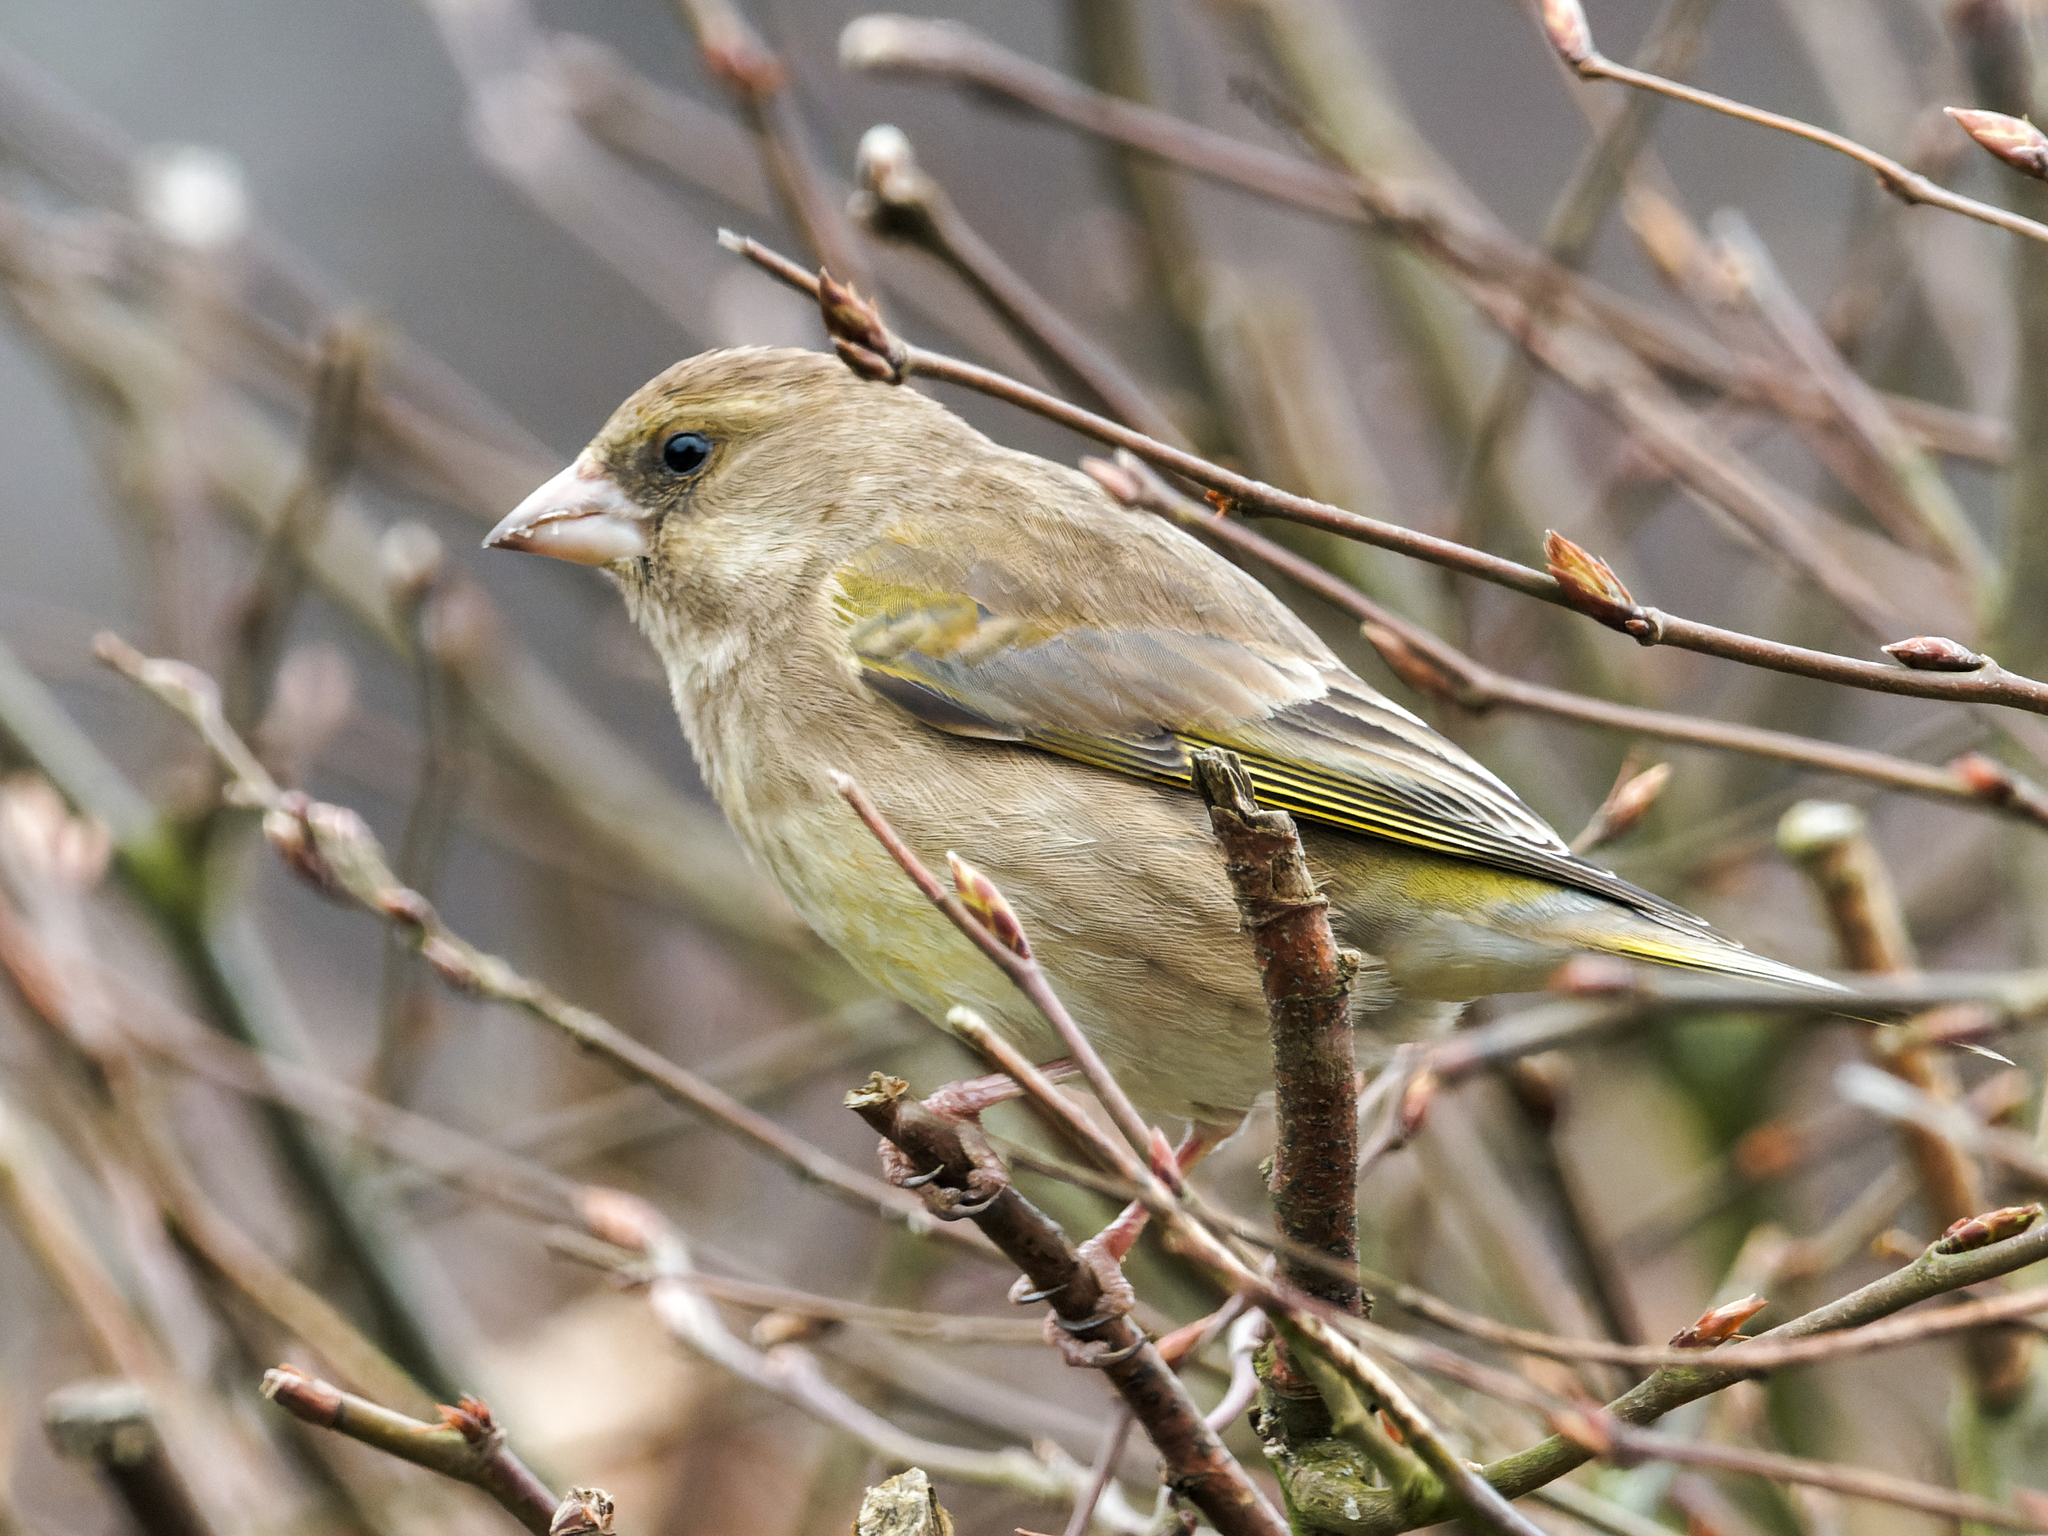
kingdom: Plantae
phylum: Tracheophyta
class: Liliopsida
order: Poales
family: Poaceae
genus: Chloris
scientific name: Chloris chloris
